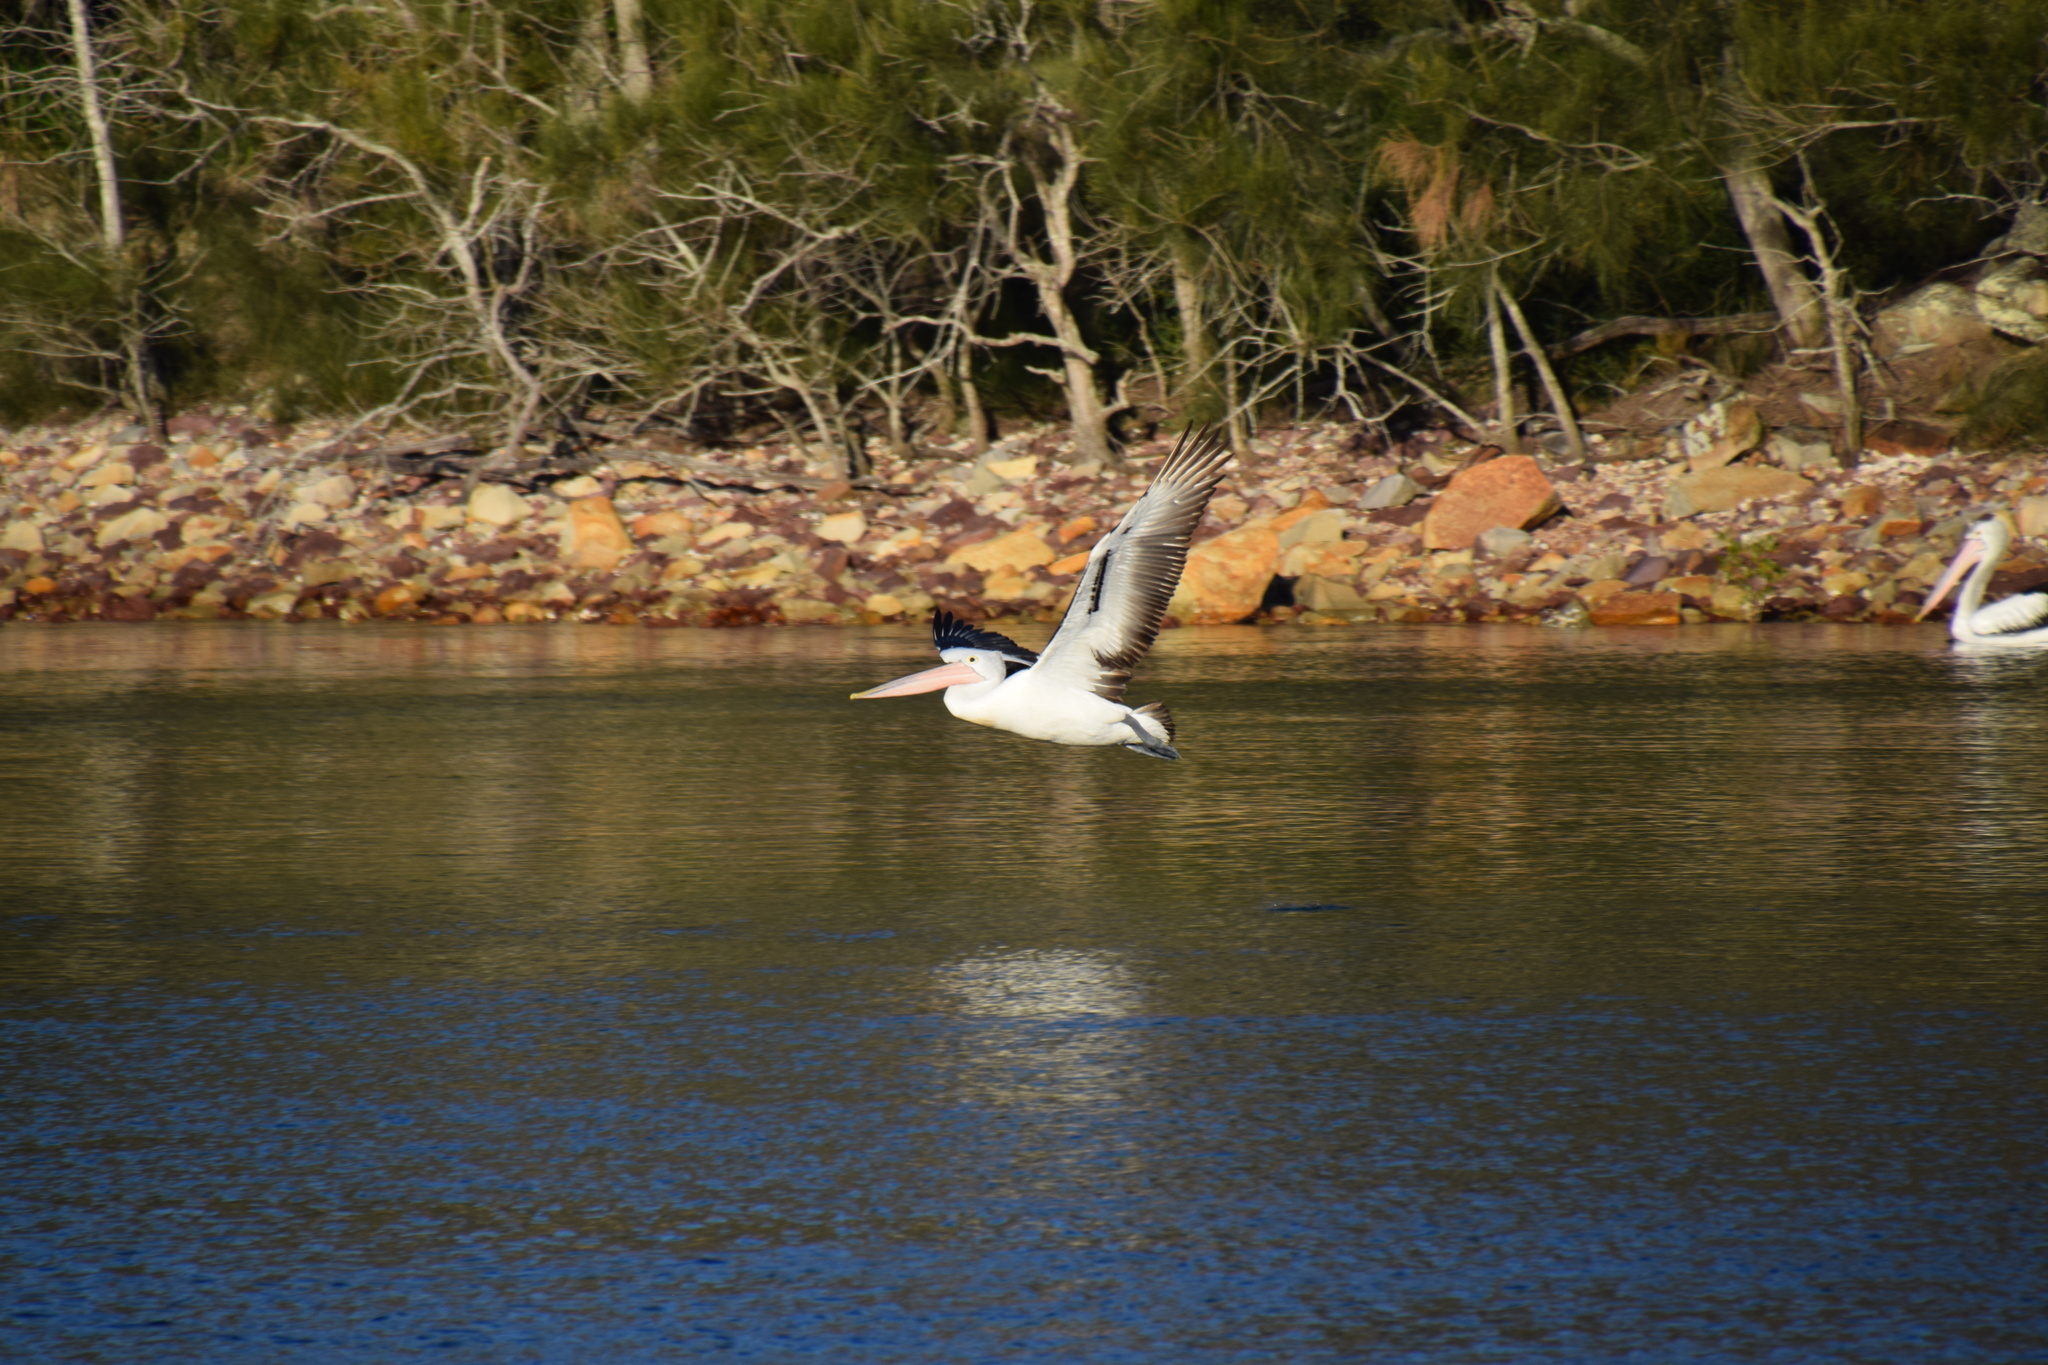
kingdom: Animalia
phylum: Chordata
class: Aves
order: Pelecaniformes
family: Pelecanidae
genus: Pelecanus
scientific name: Pelecanus conspicillatus
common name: Australian pelican
